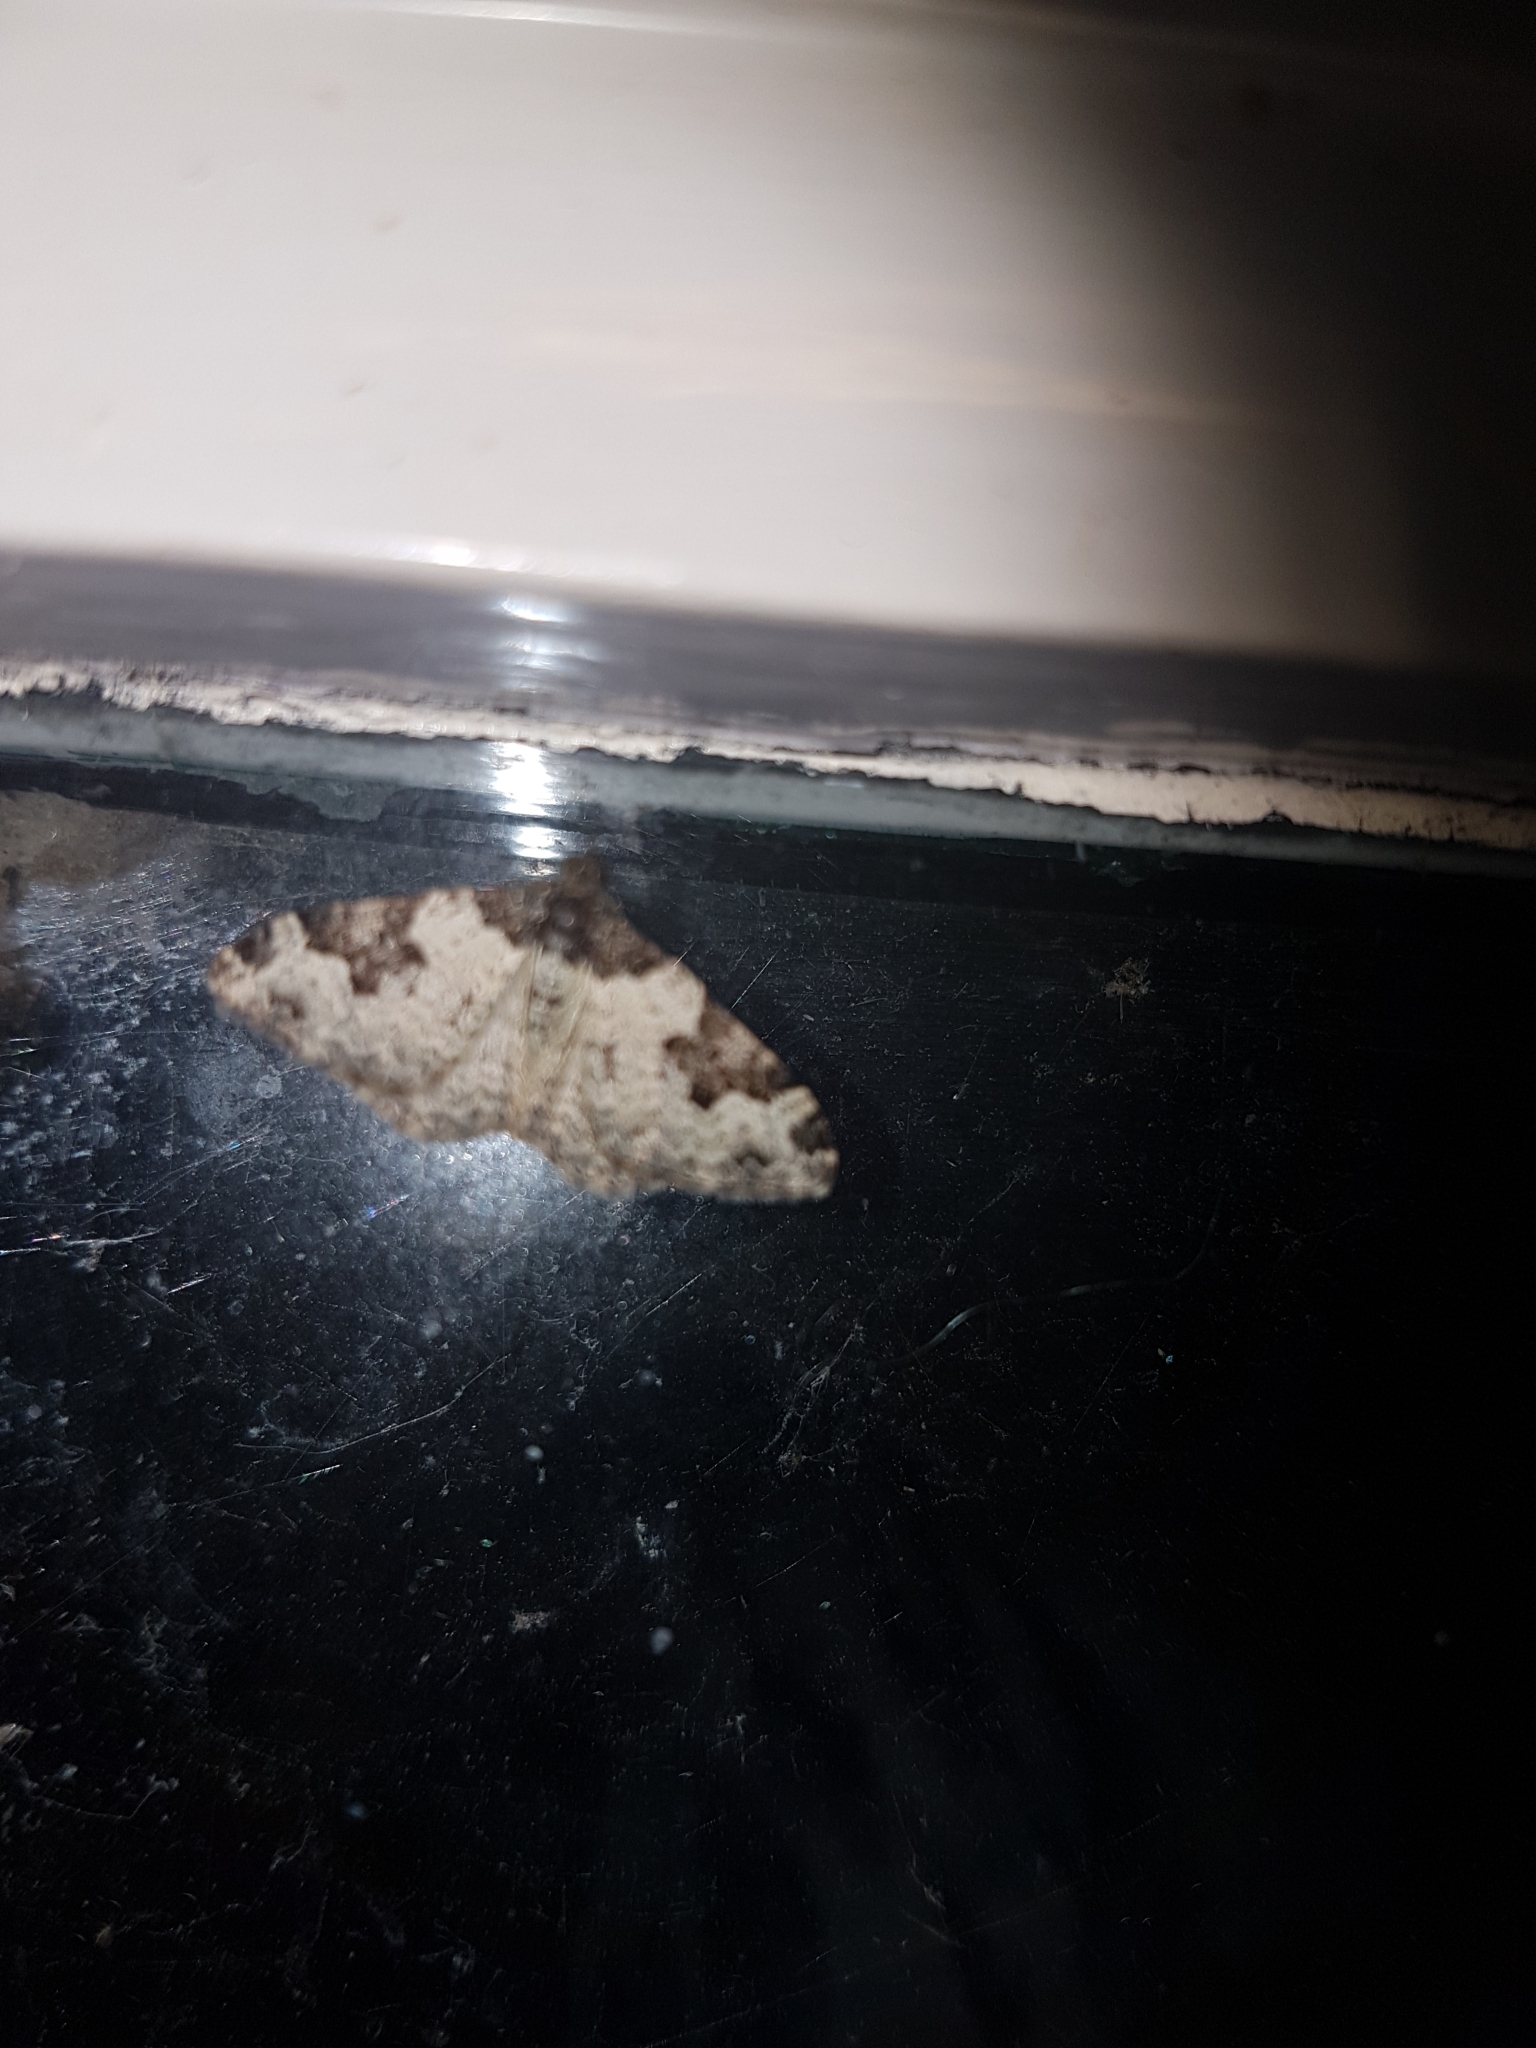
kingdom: Animalia
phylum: Arthropoda
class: Insecta
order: Lepidoptera
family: Geometridae
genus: Xanthorhoe
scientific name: Xanthorhoe fluctuata
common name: Garden carpet
